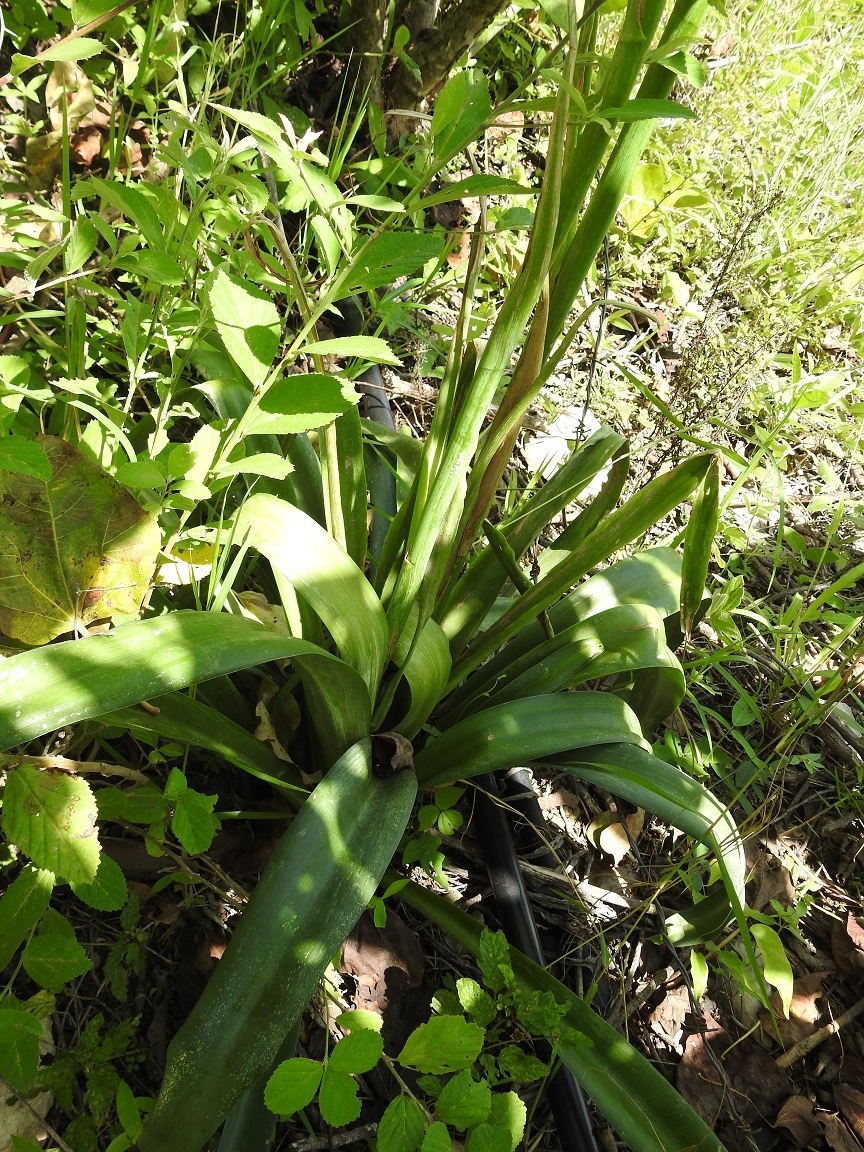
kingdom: Plantae
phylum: Tracheophyta
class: Liliopsida
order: Asparagales
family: Asparagaceae
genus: Agave
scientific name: Agave scabra
